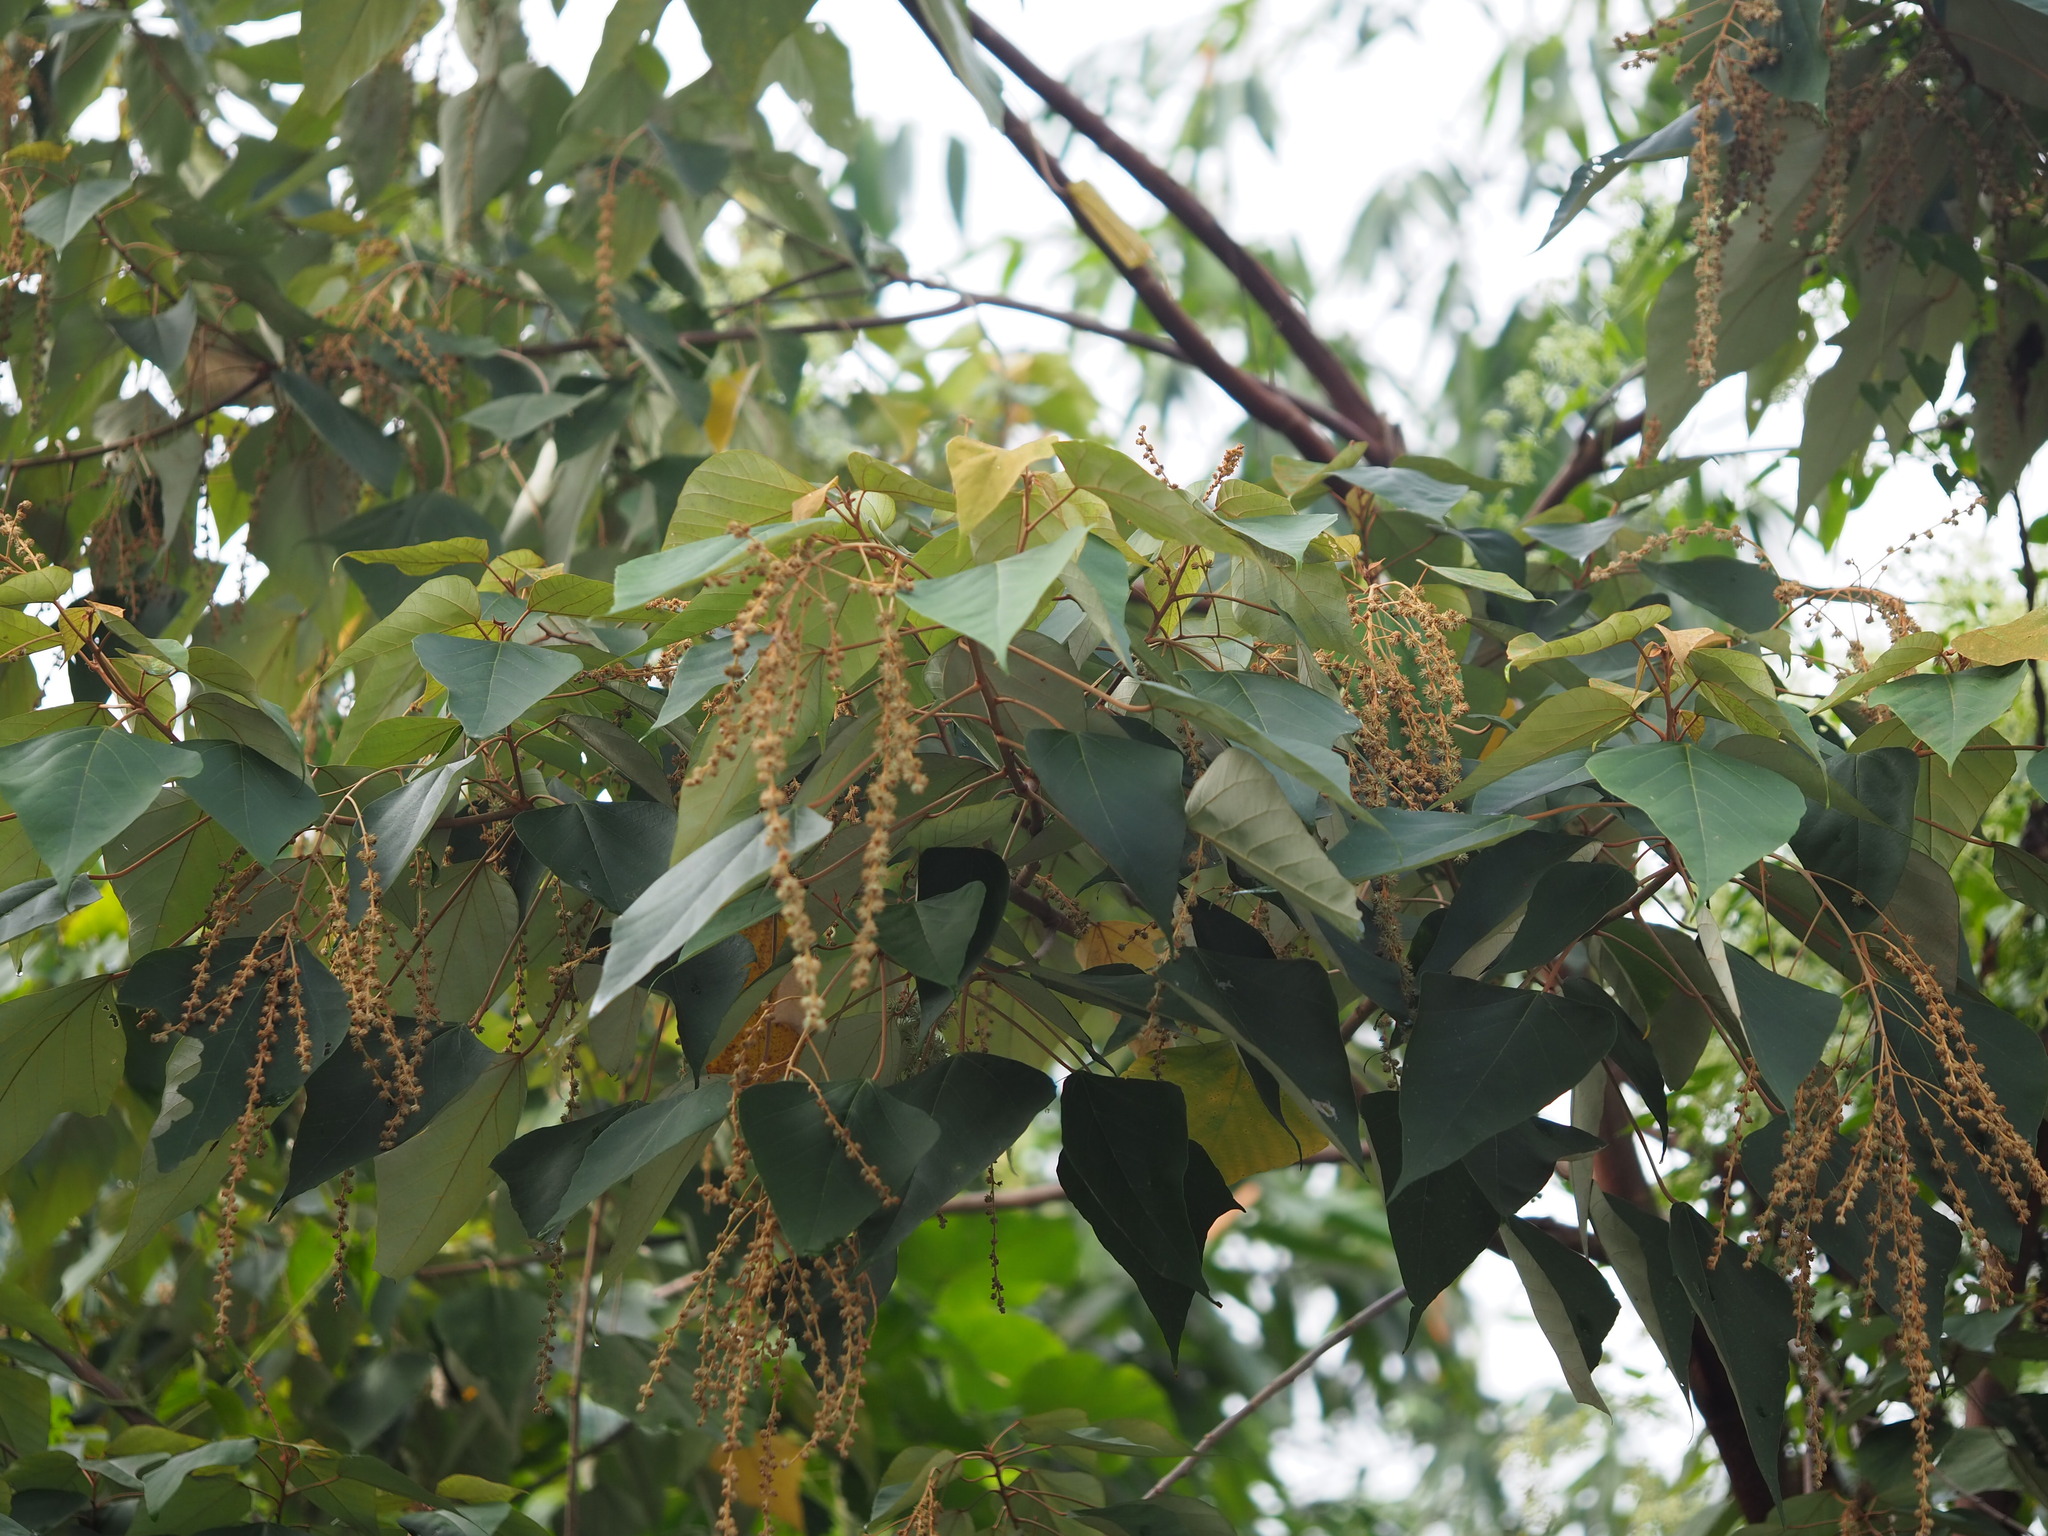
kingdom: Plantae
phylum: Tracheophyta
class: Magnoliopsida
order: Malpighiales
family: Euphorbiaceae
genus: Mallotus
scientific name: Mallotus paniculatus
